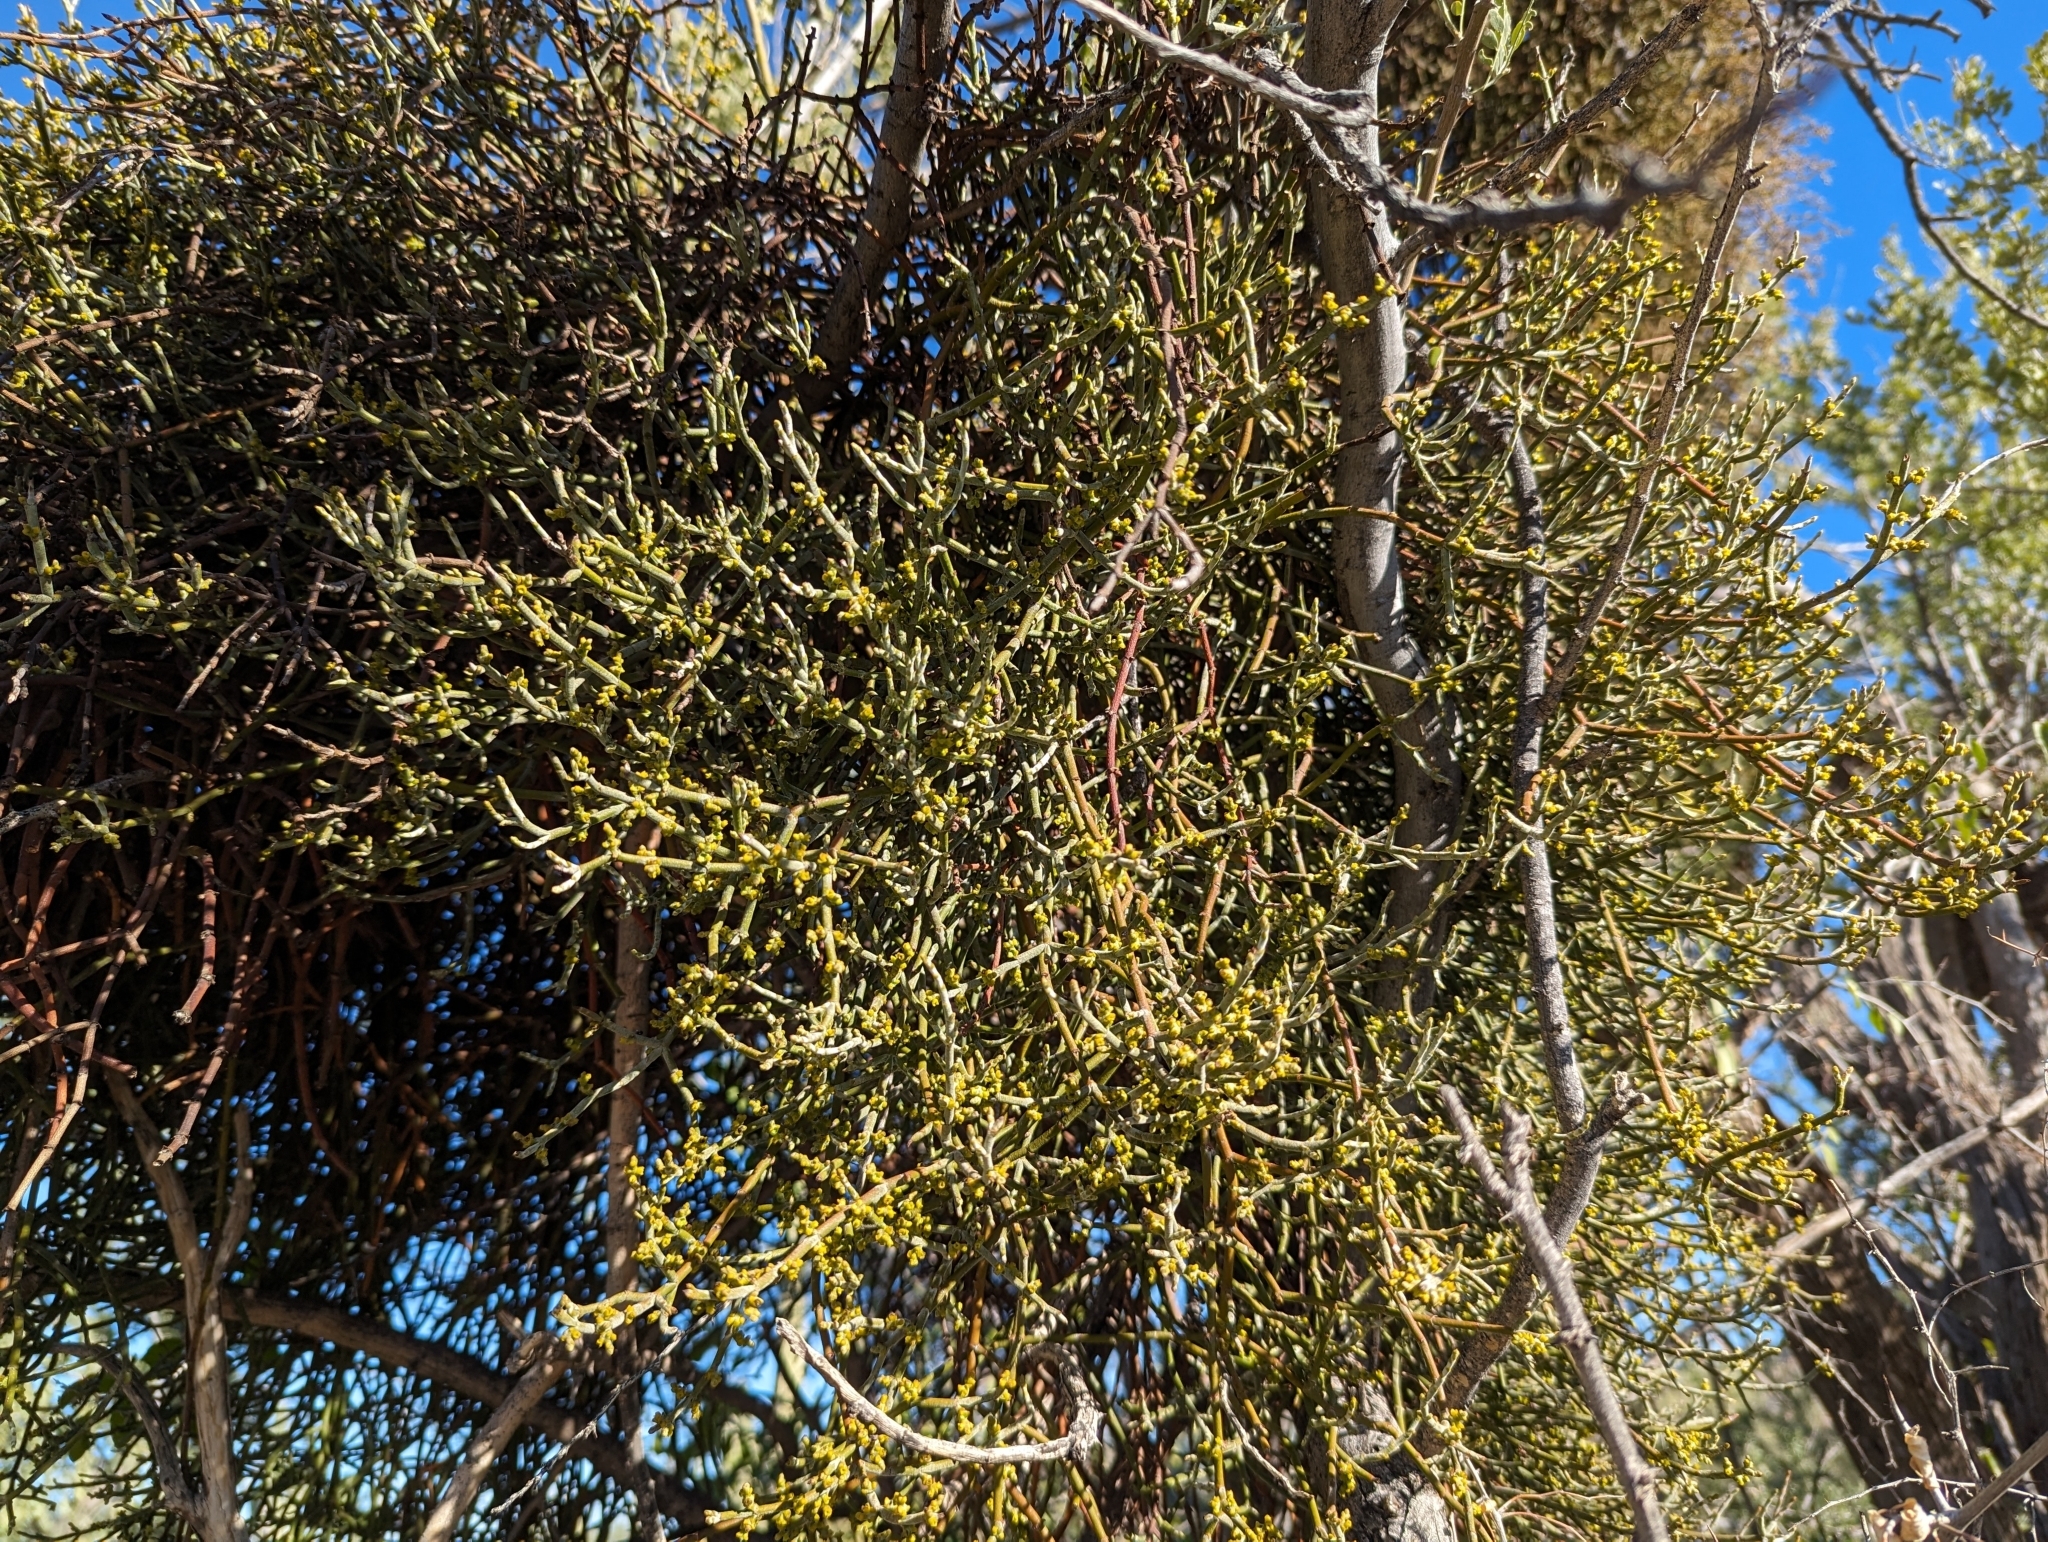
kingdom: Plantae
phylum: Tracheophyta
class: Magnoliopsida
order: Santalales
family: Viscaceae
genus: Phoradendron
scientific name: Phoradendron californicum
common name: Acacia mistletoe
